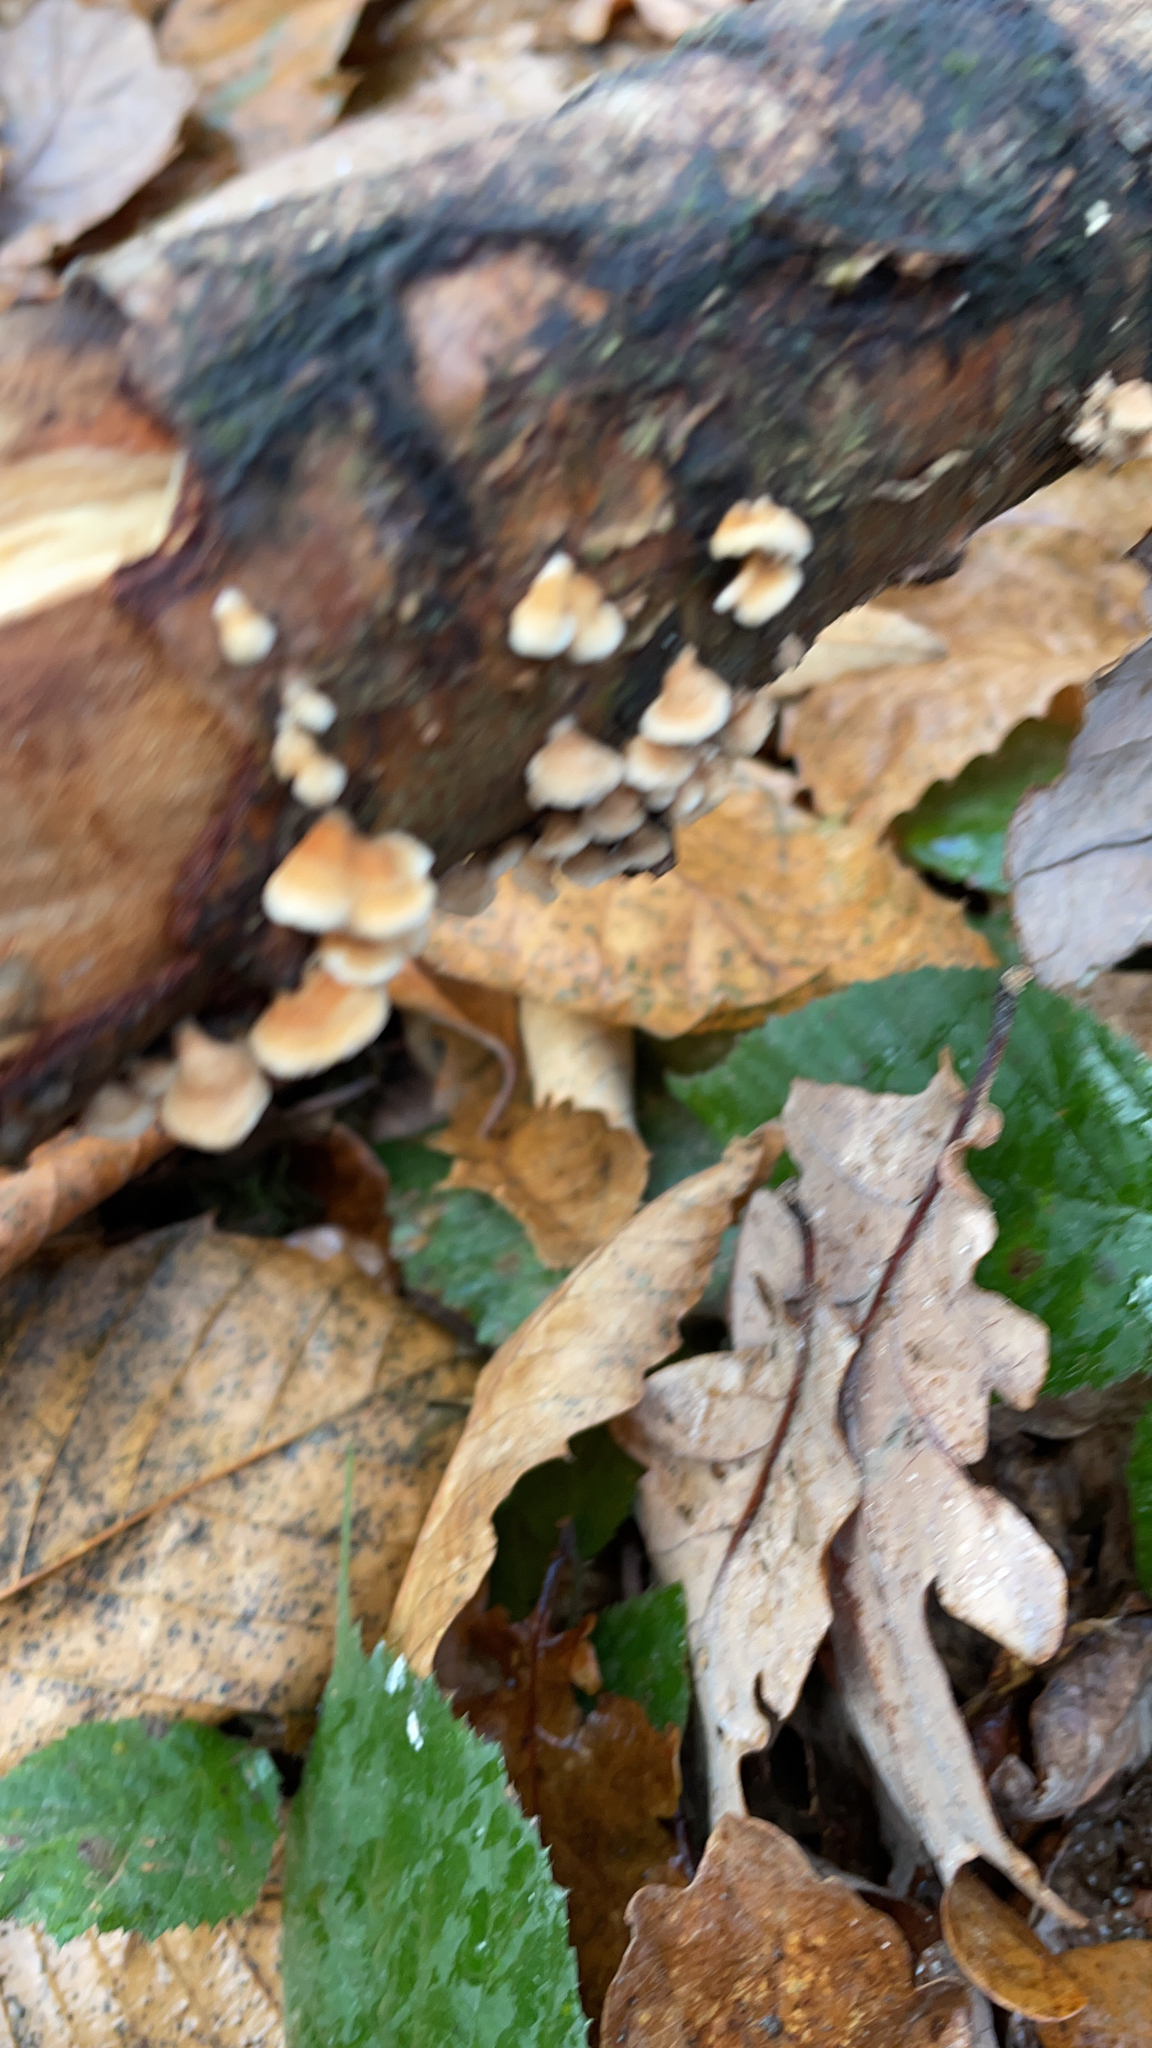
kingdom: Fungi
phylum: Basidiomycota
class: Agaricomycetes
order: Amylocorticiales
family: Amylocorticiaceae
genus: Plicaturopsis
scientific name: Plicaturopsis crispa
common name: Crimped gill
